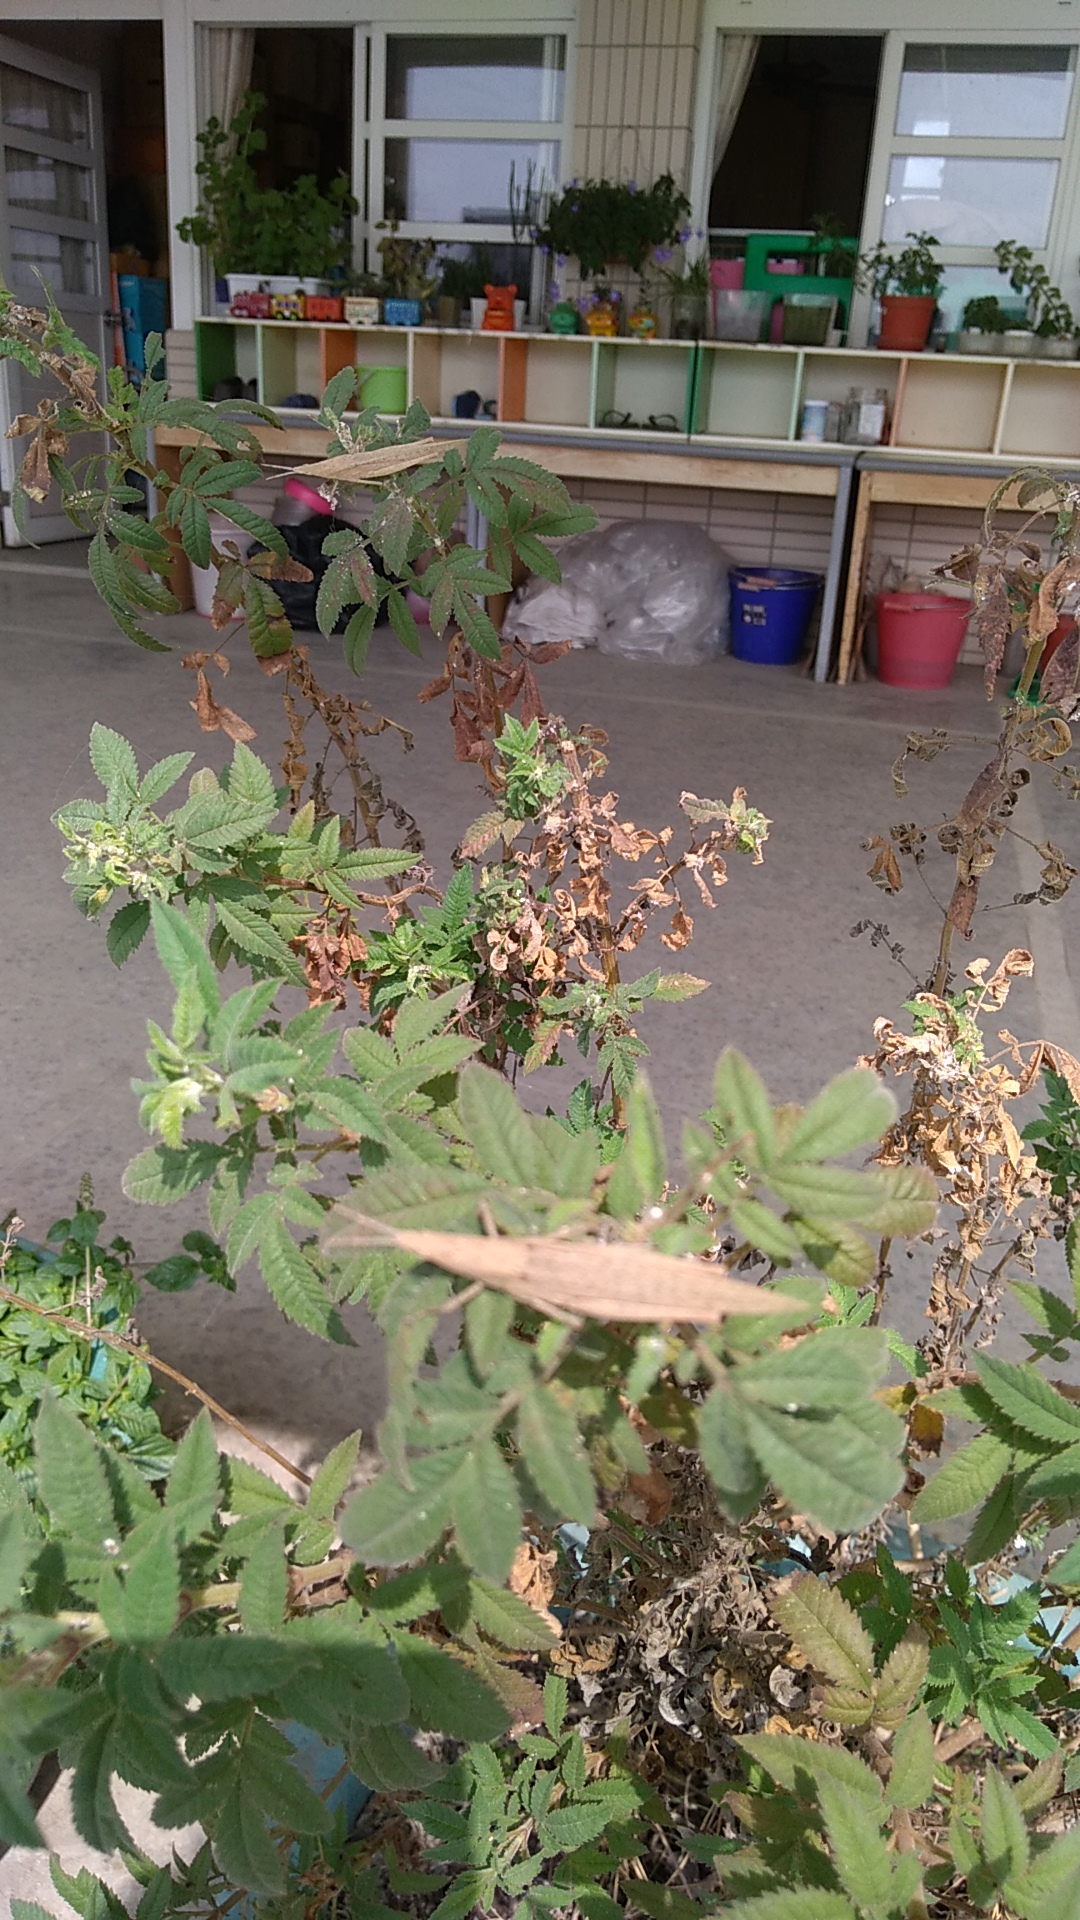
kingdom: Animalia
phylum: Arthropoda
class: Insecta
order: Orthoptera
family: Pyrgomorphidae
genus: Atractomorpha
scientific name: Atractomorpha sinensis
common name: Pinkwinged grasshopper
